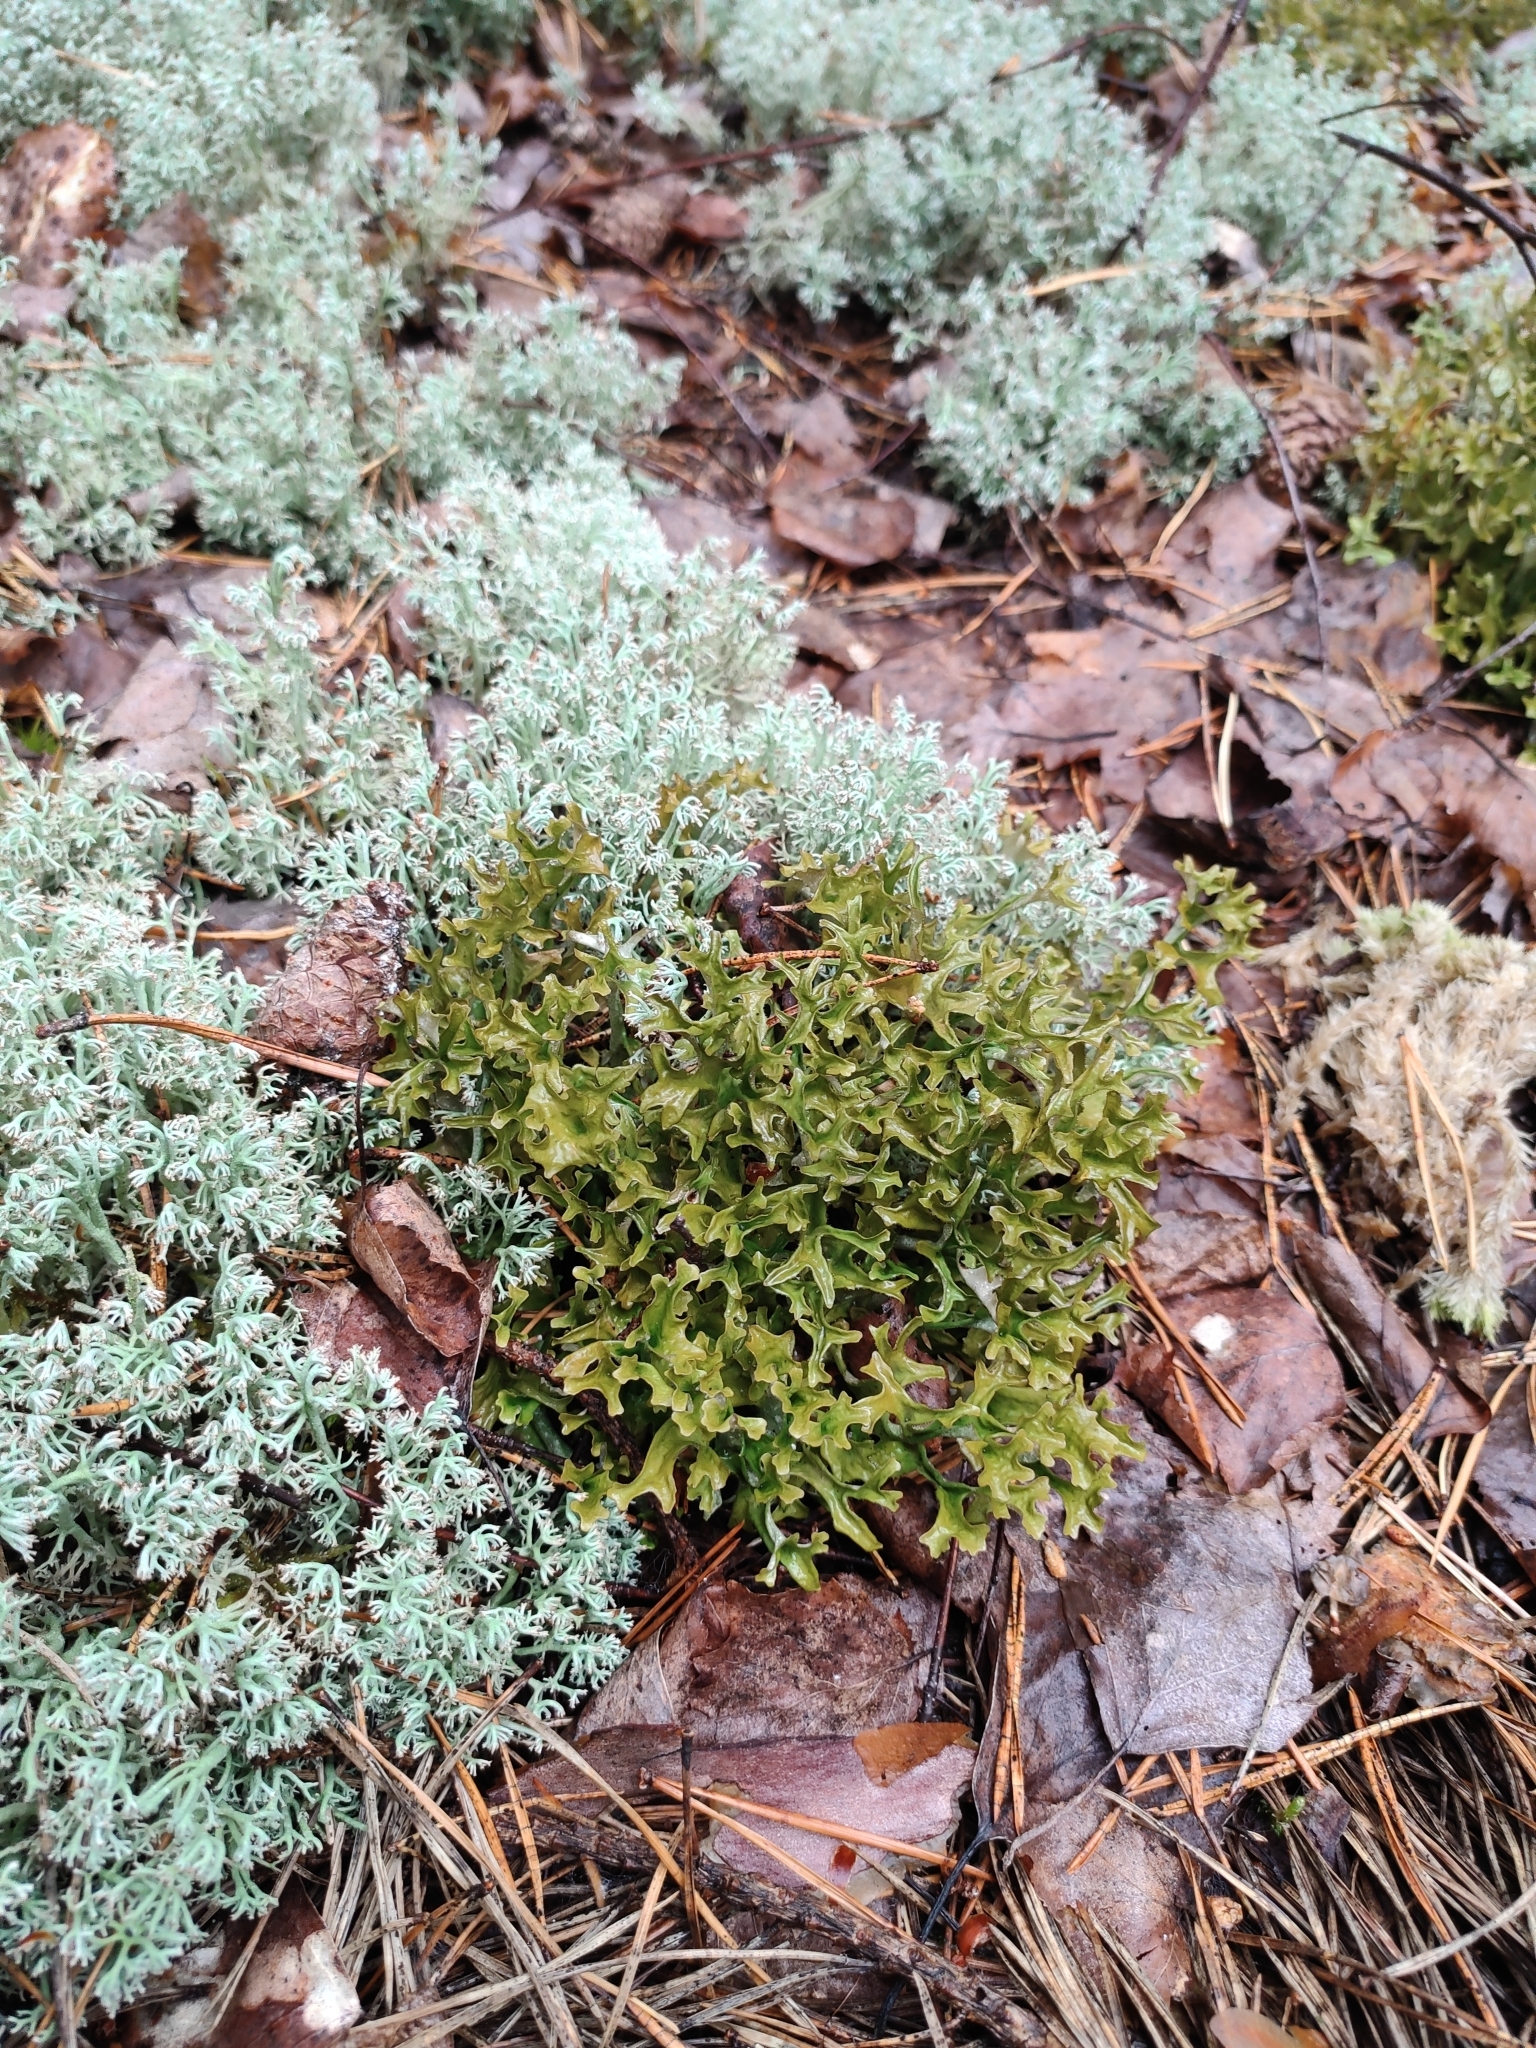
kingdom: Fungi
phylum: Ascomycota
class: Lecanoromycetes
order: Lecanorales
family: Parmeliaceae
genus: Cetraria
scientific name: Cetraria islandica
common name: Iceland lichen
